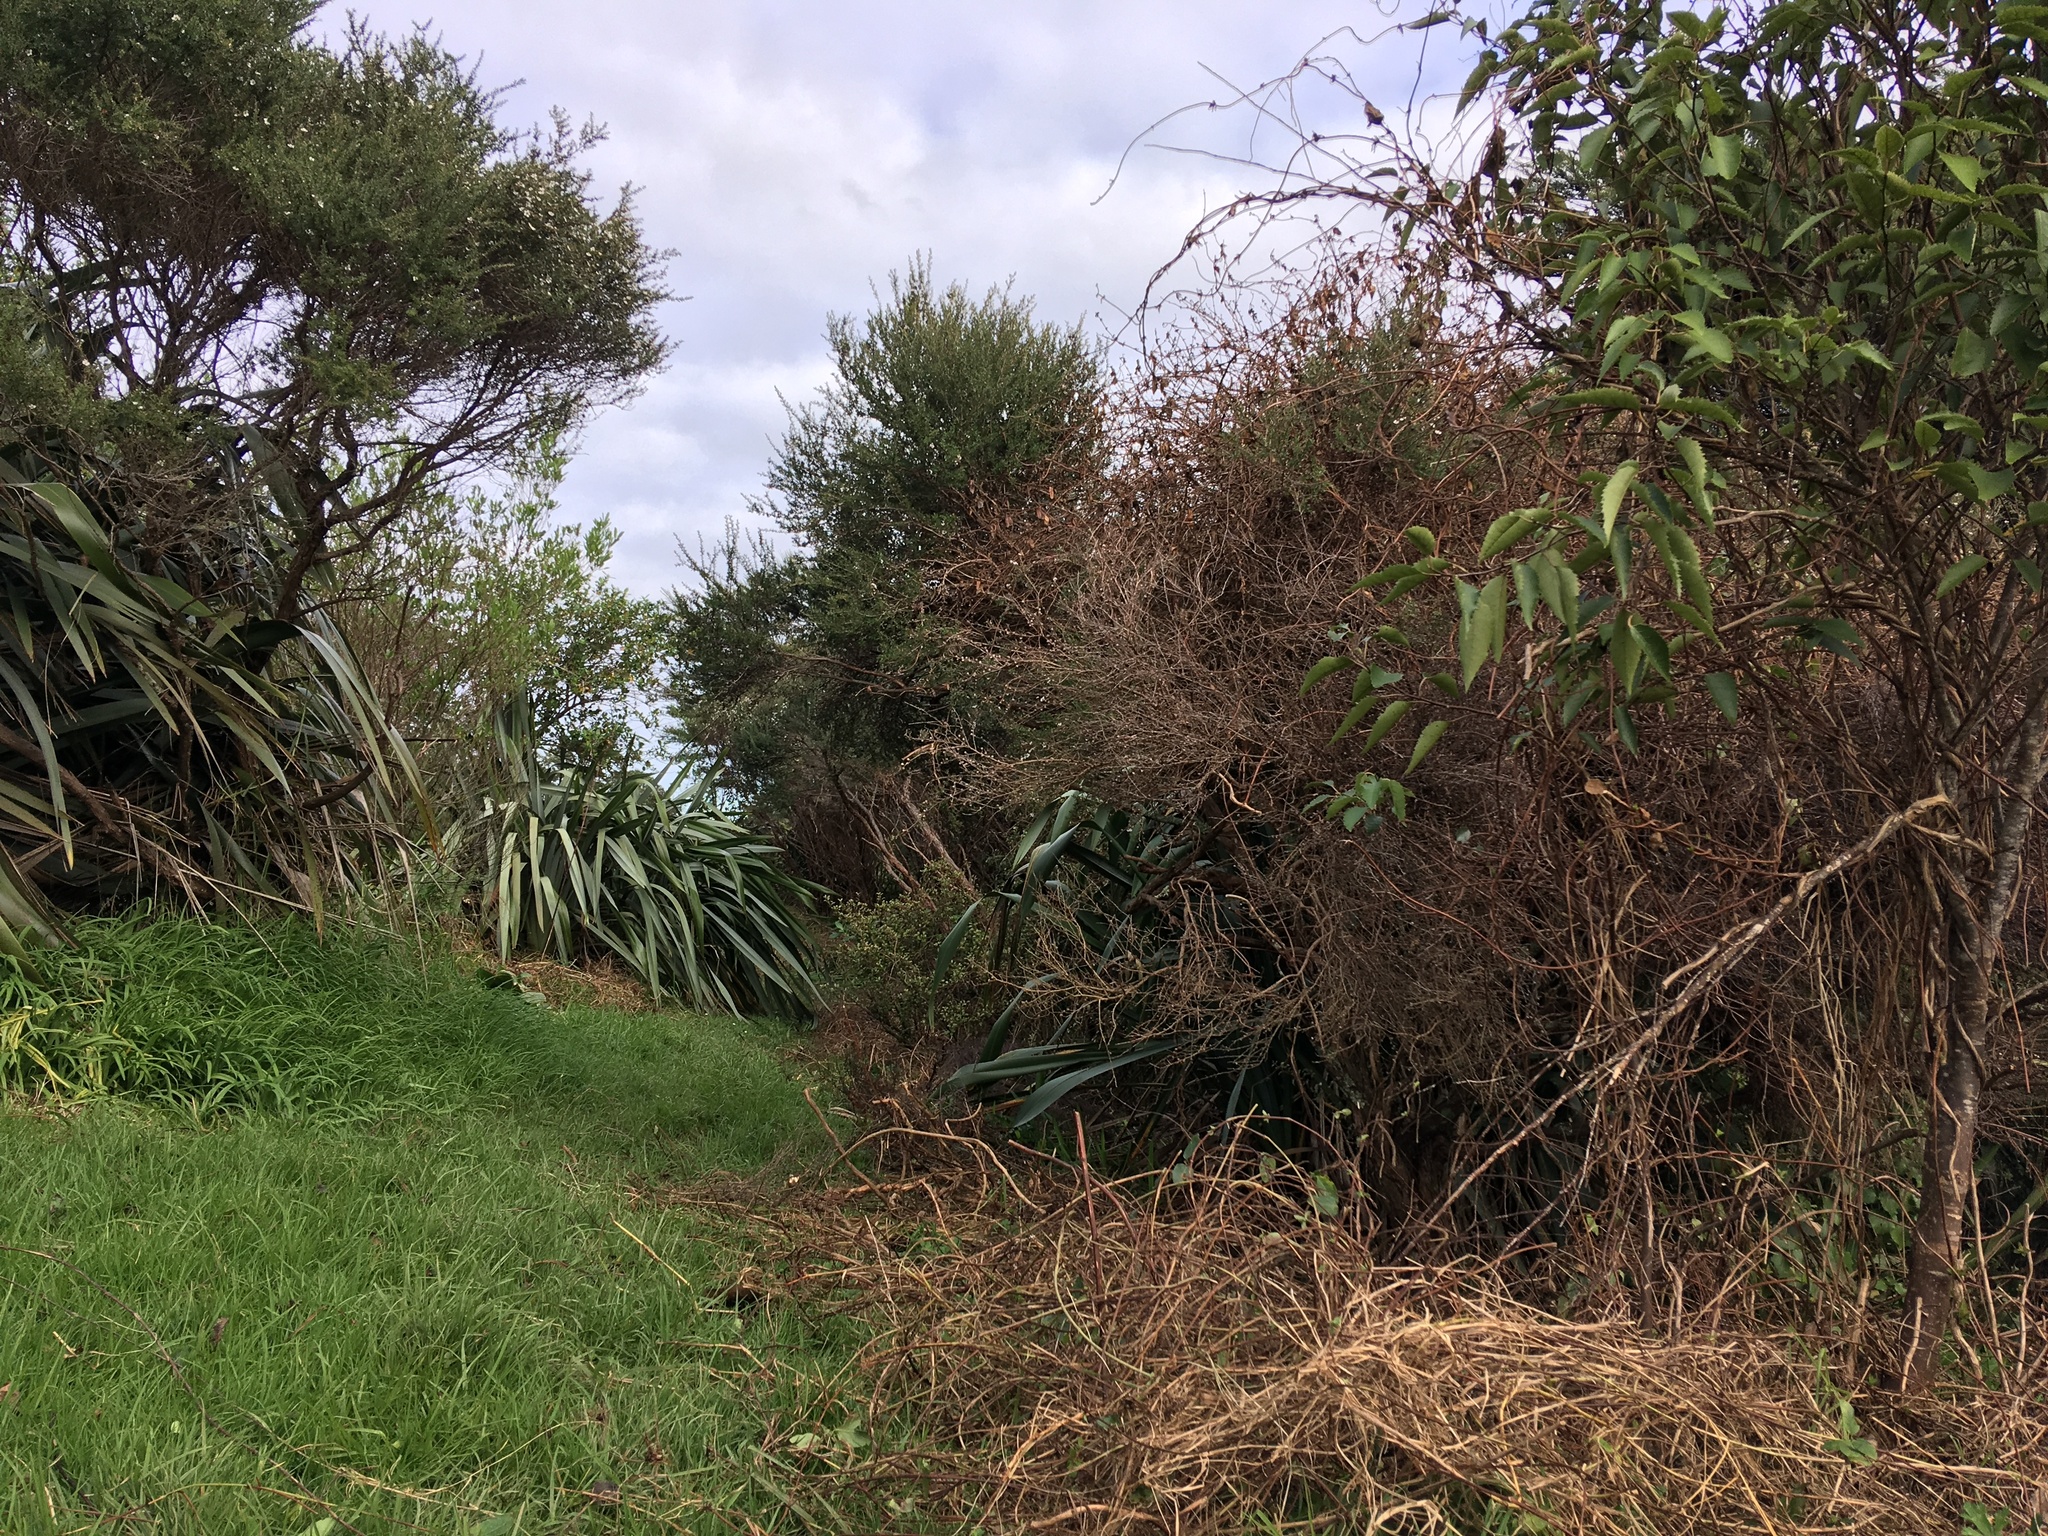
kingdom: Plantae
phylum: Tracheophyta
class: Liliopsida
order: Poales
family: Poaceae
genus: Cenchrus
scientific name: Cenchrus clandestinus
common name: Kikuyugrass
